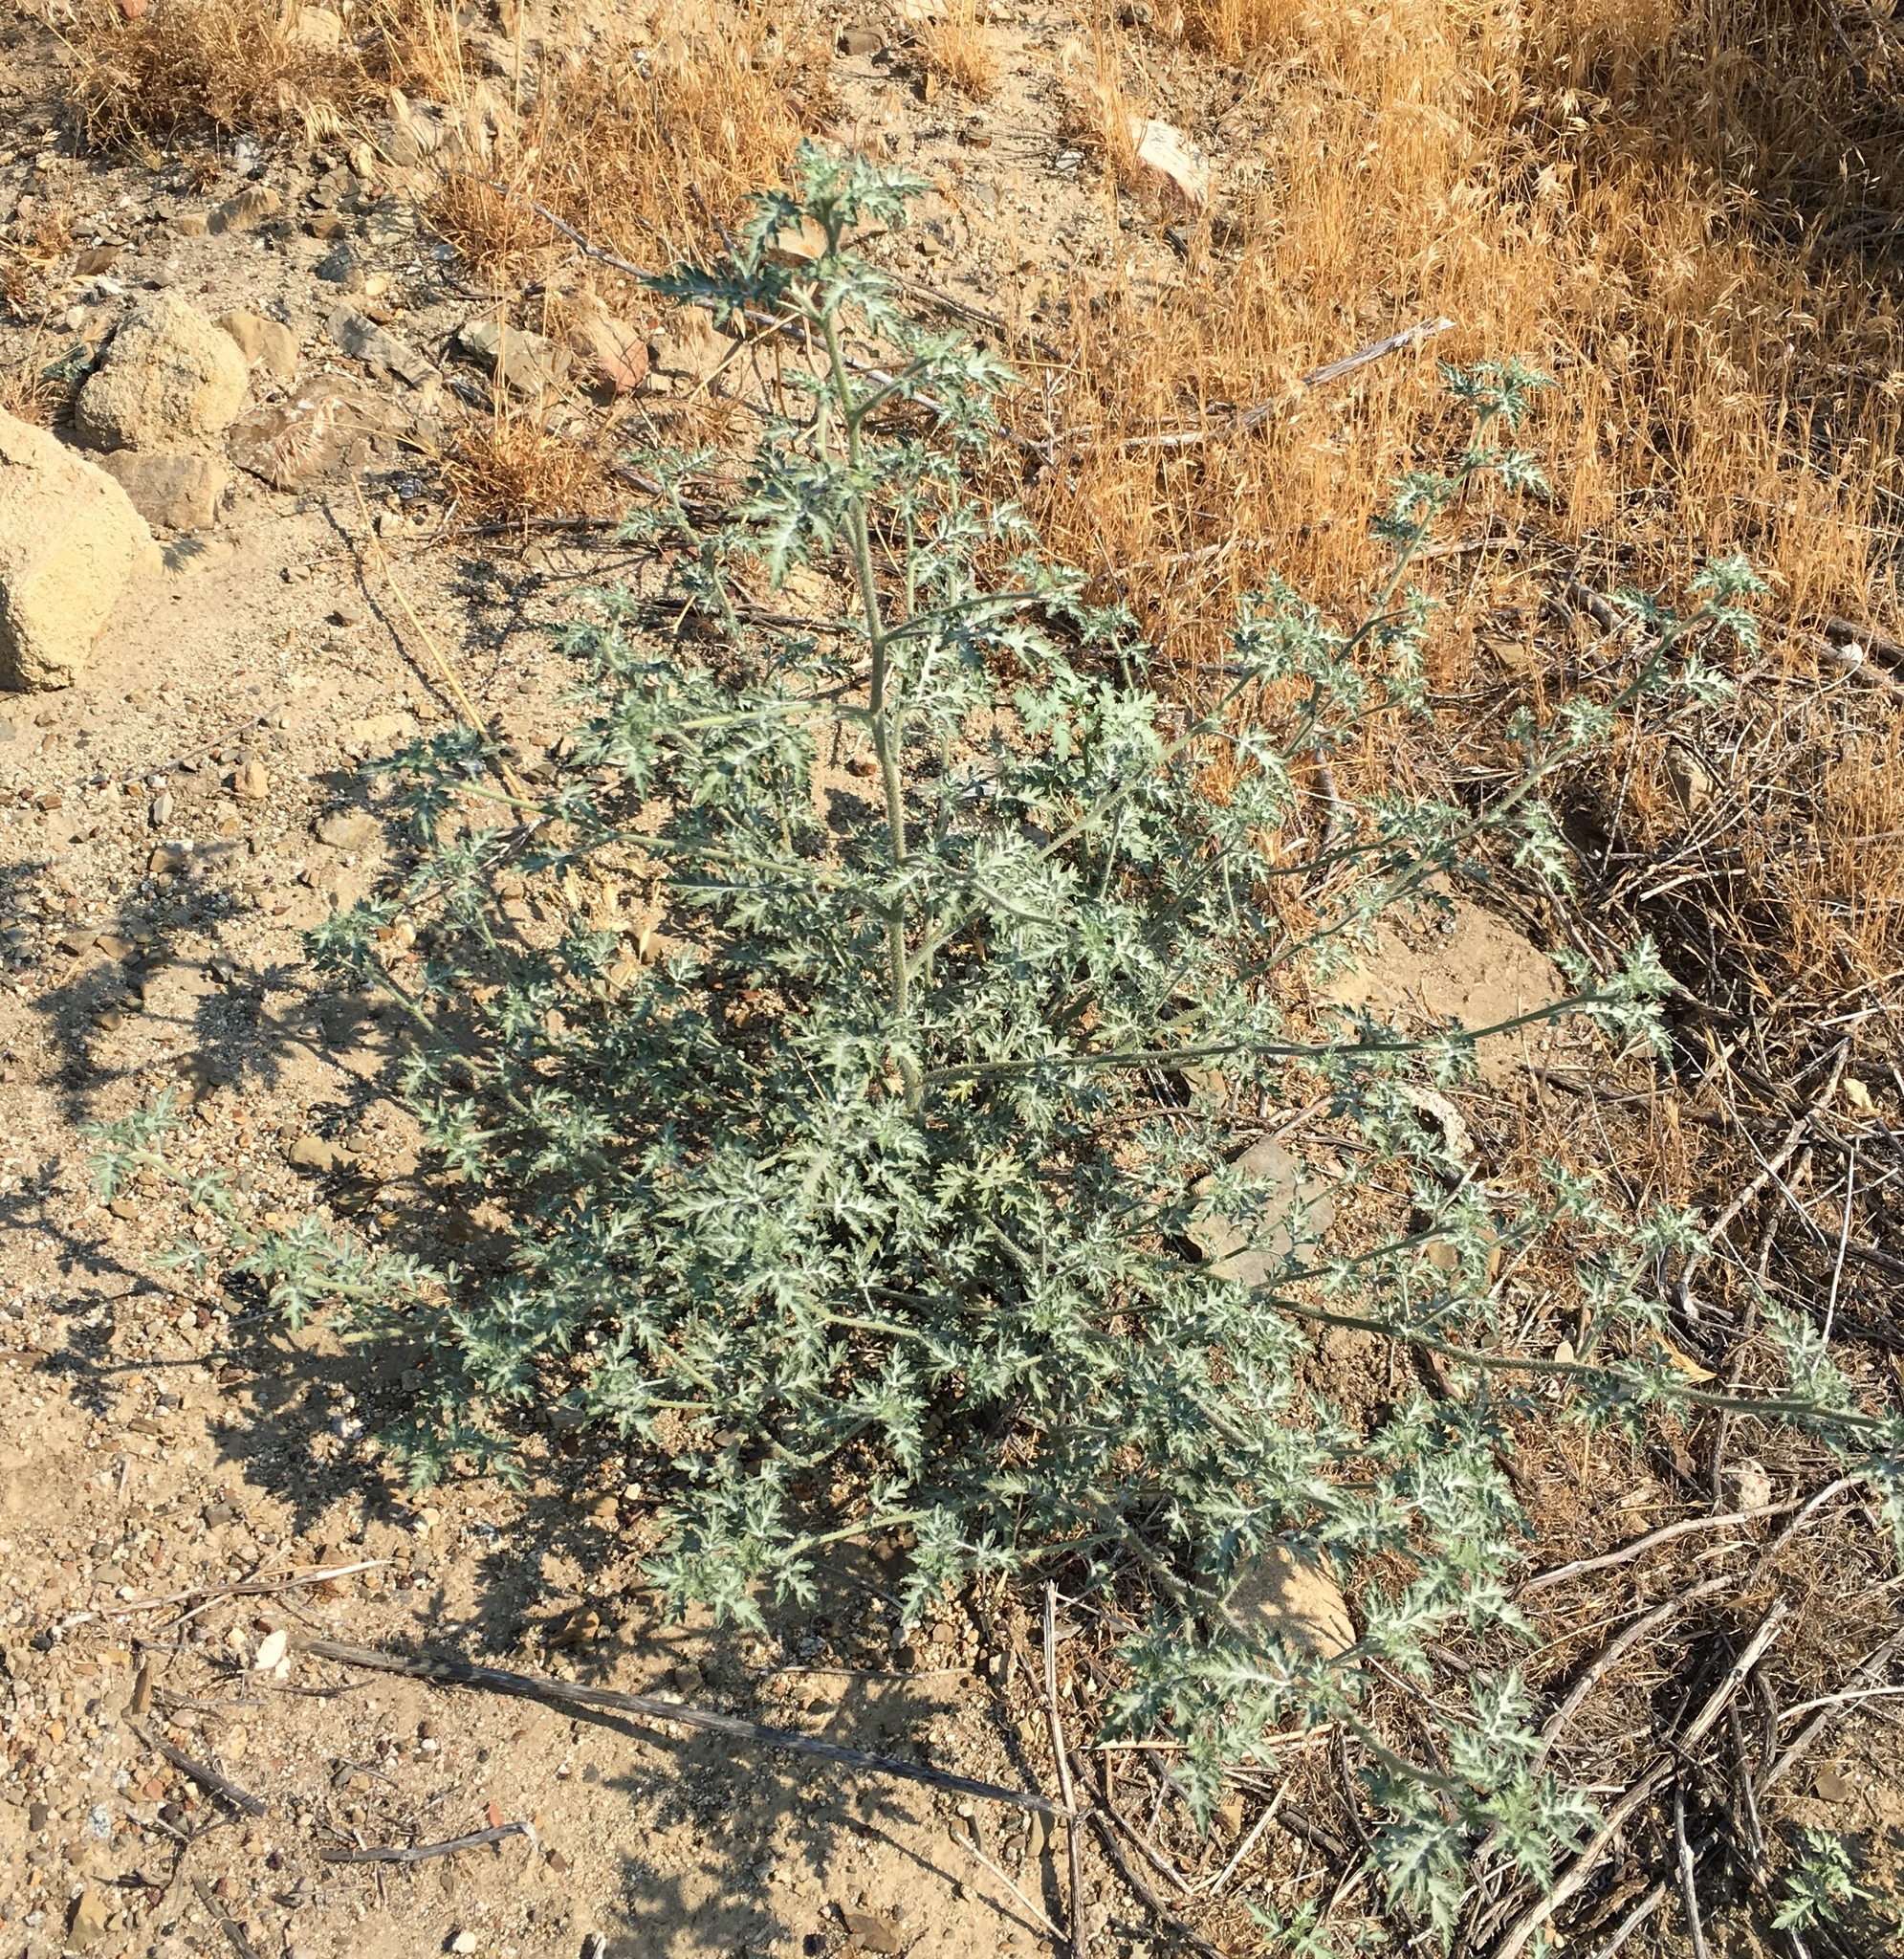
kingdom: Plantae
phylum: Tracheophyta
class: Magnoliopsida
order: Asterales
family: Asteraceae
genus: Ambrosia
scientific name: Ambrosia acanthicarpa
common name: Hooker's bur ragweed
